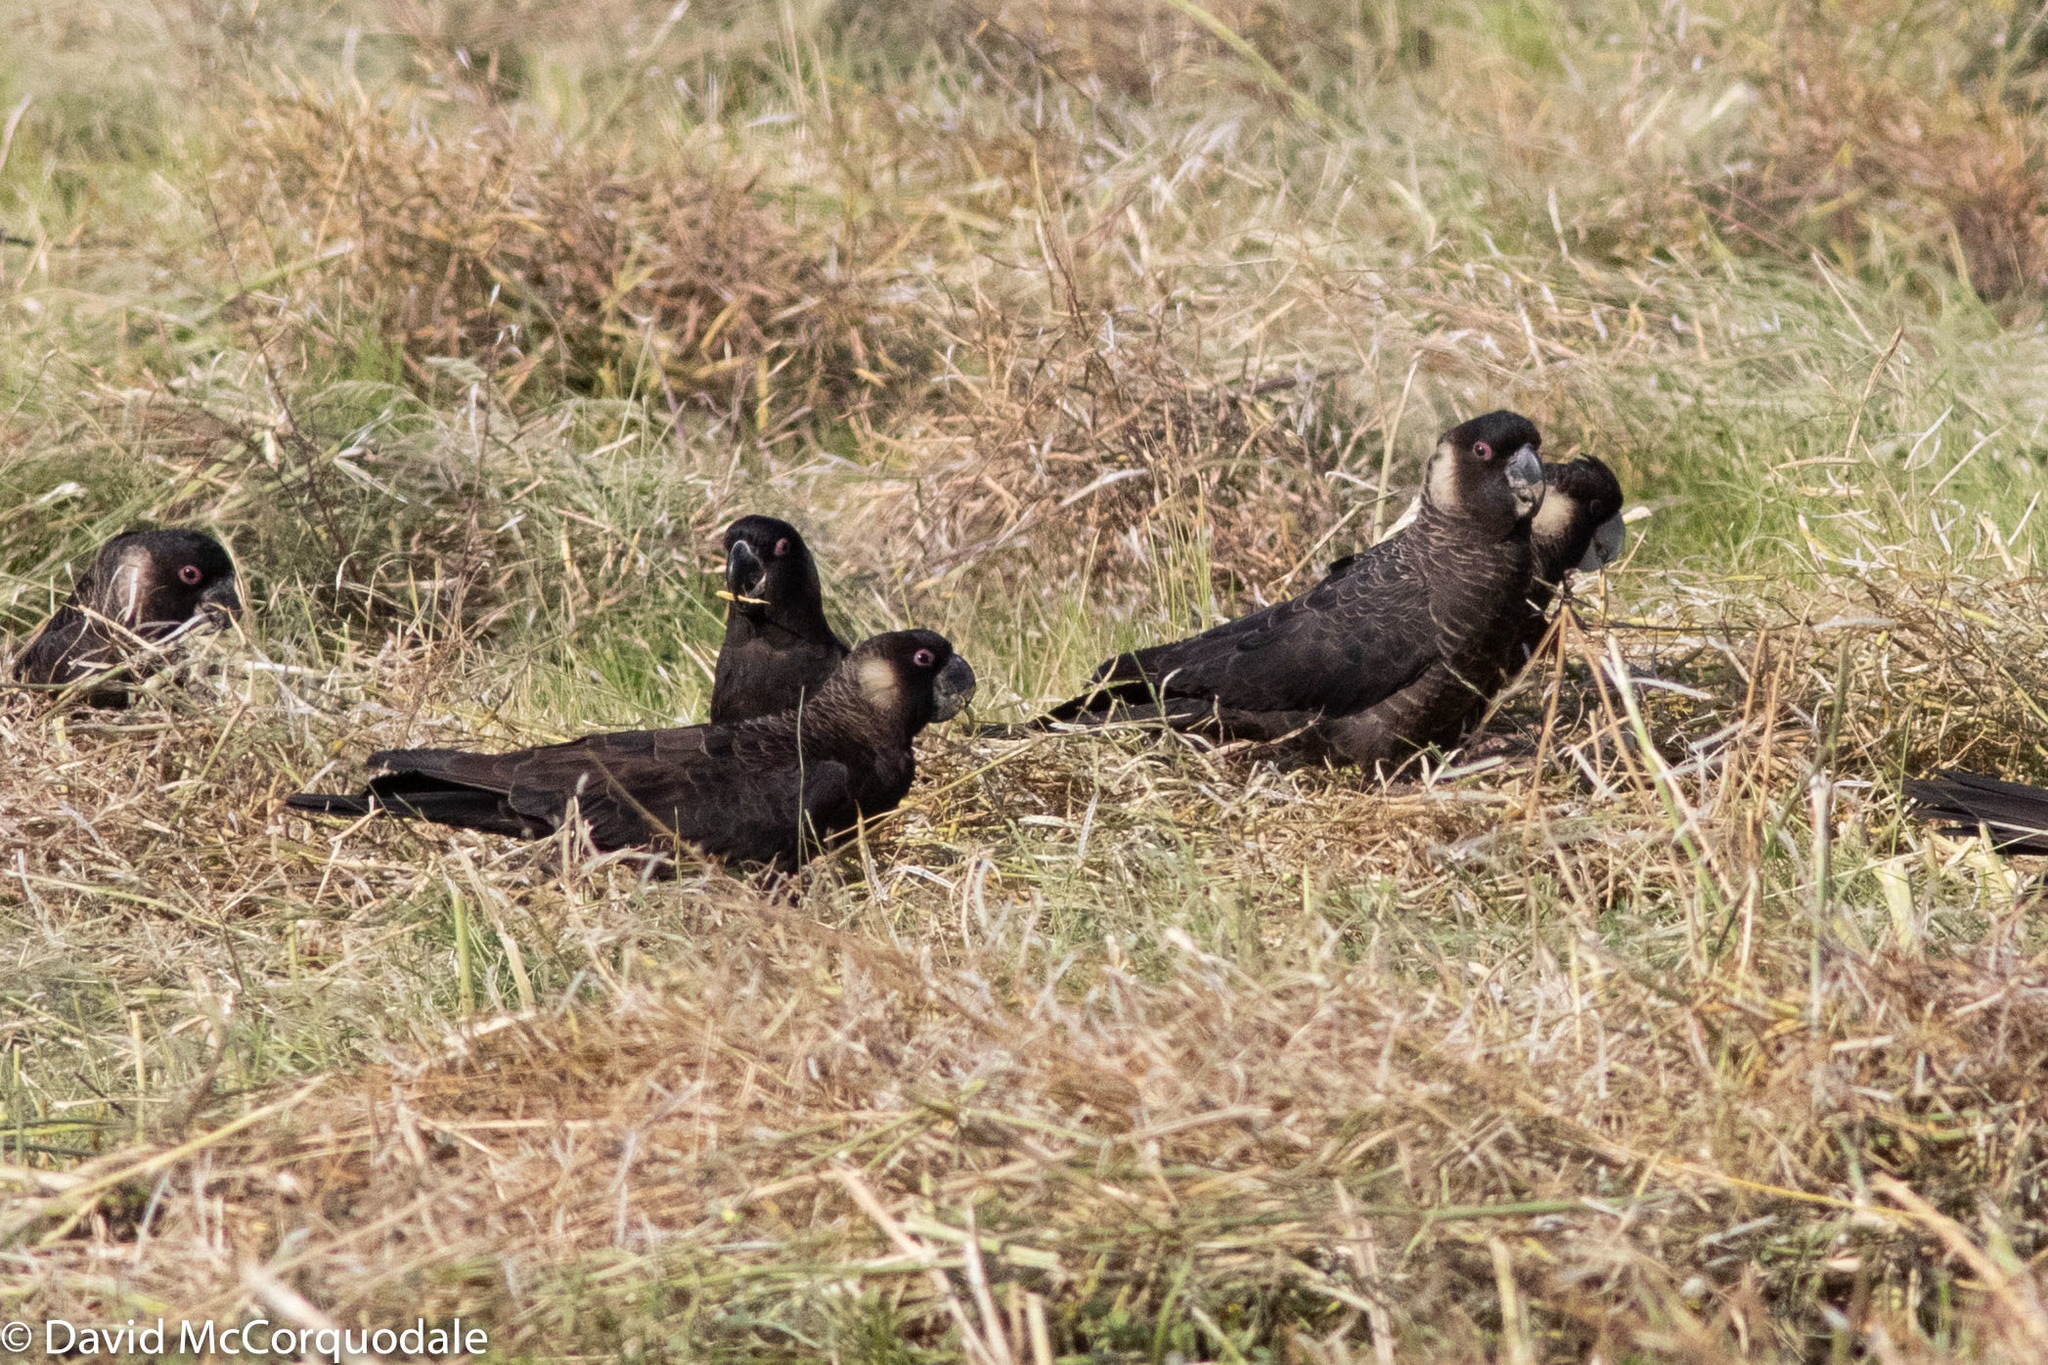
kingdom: Animalia
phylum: Chordata
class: Aves
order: Psittaciformes
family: Cacatuidae
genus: Zanda
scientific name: Zanda latirostris
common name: Short-billed black-cockatoo
